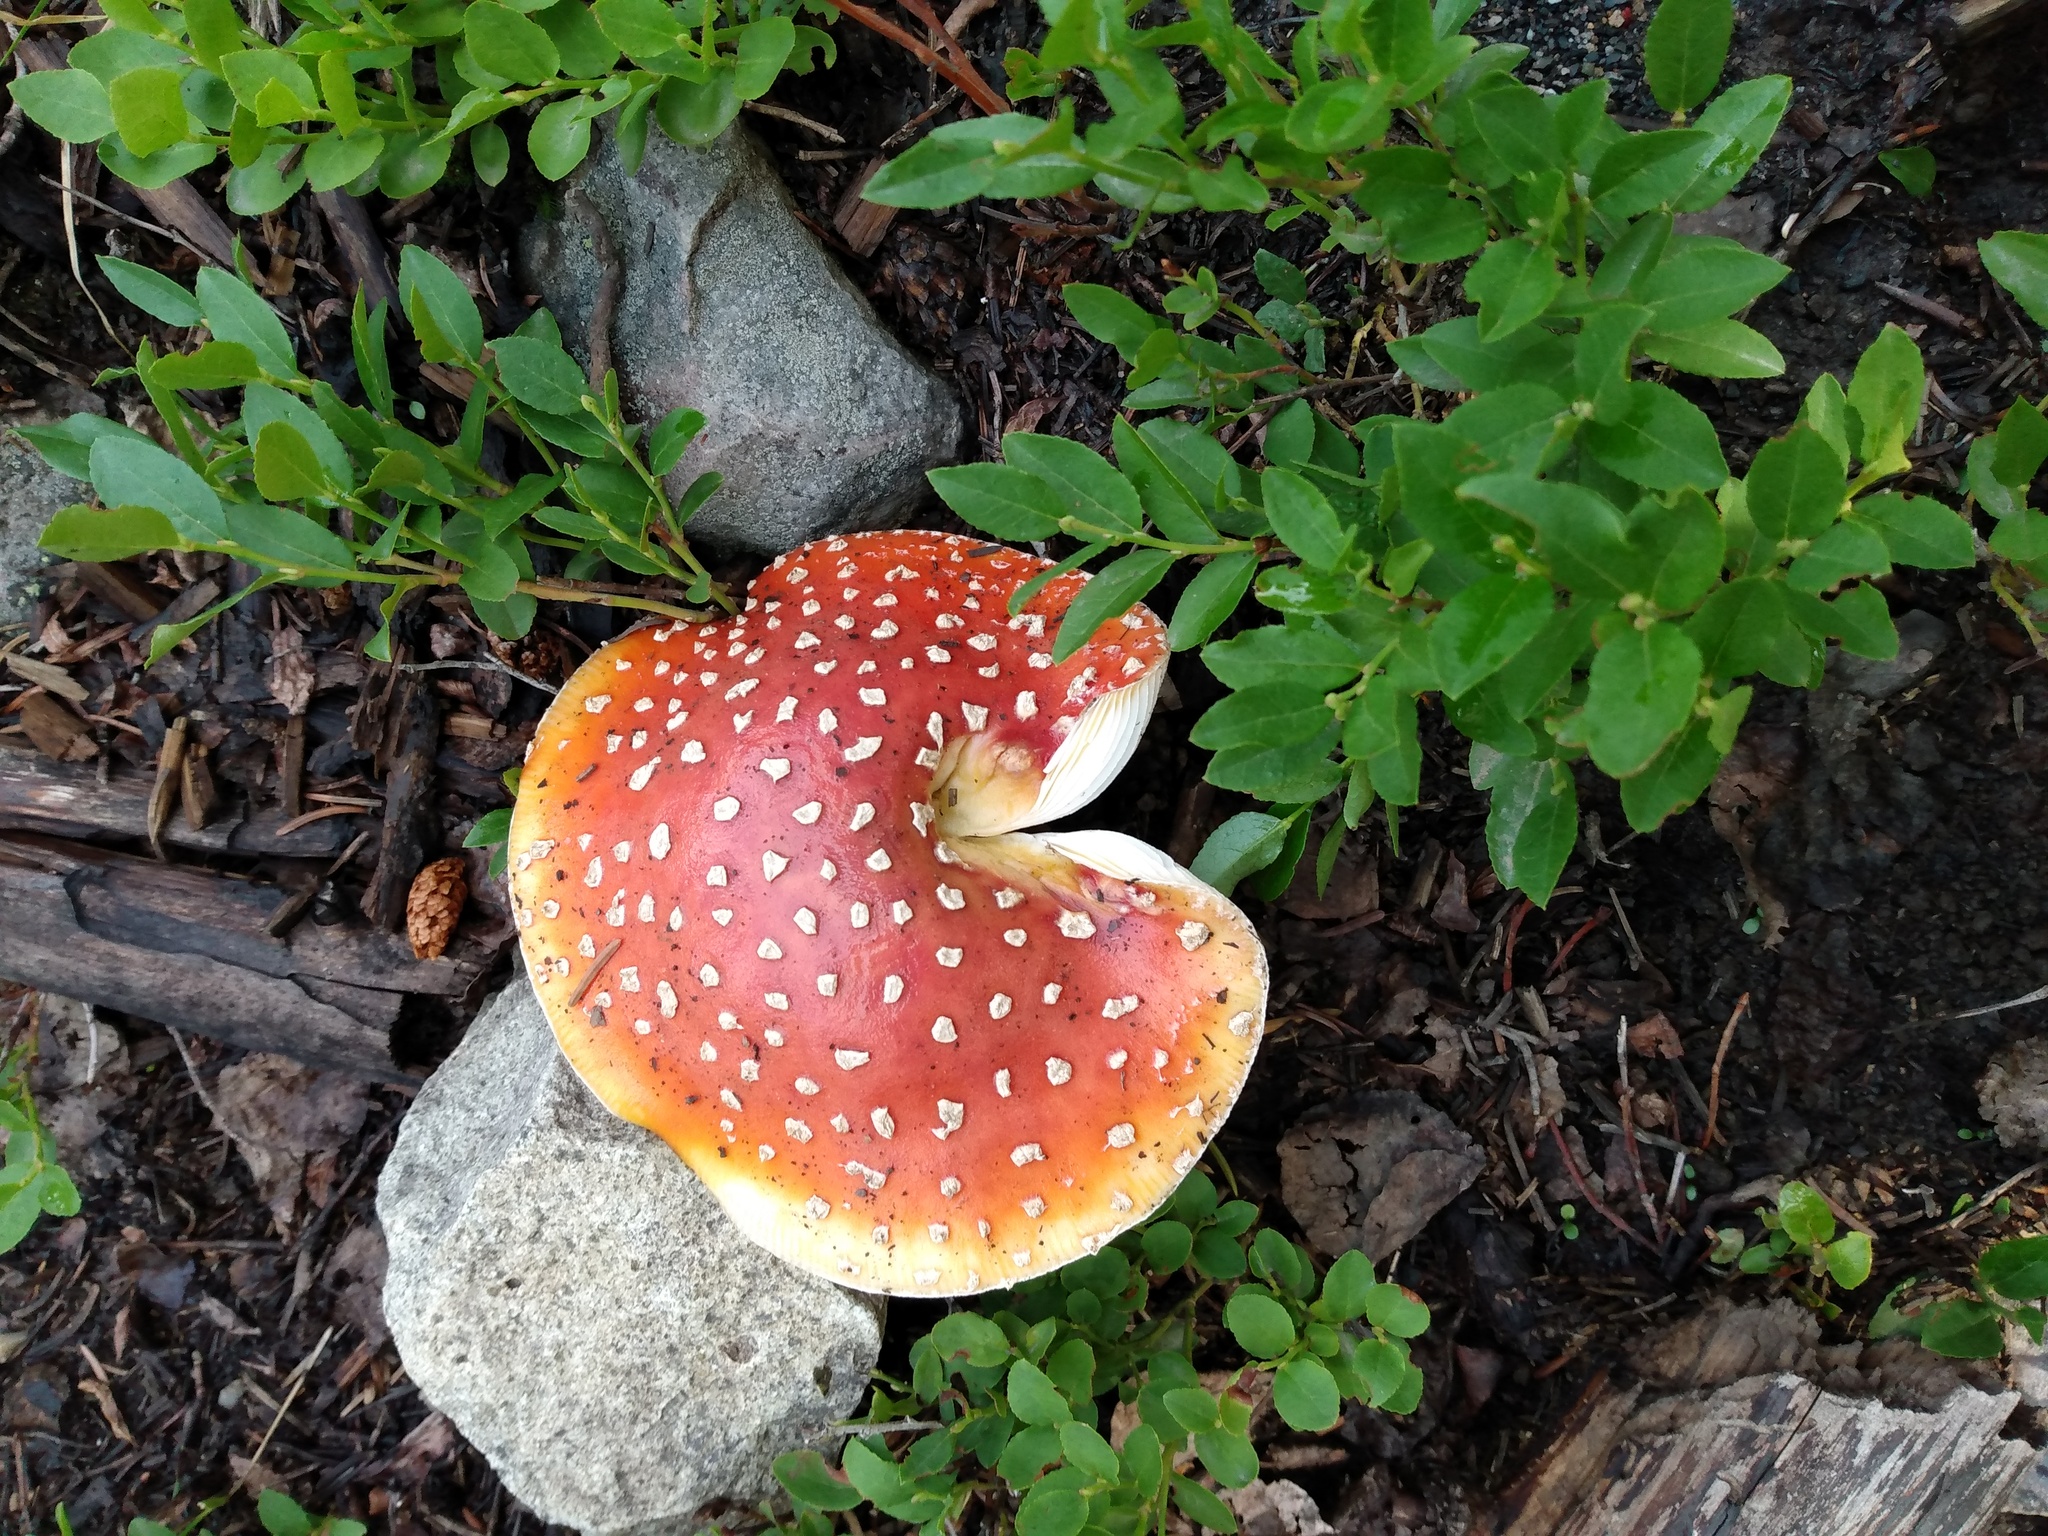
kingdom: Fungi
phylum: Basidiomycota
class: Agaricomycetes
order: Agaricales
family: Amanitaceae
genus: Amanita
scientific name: Amanita muscaria
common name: Fly agaric
